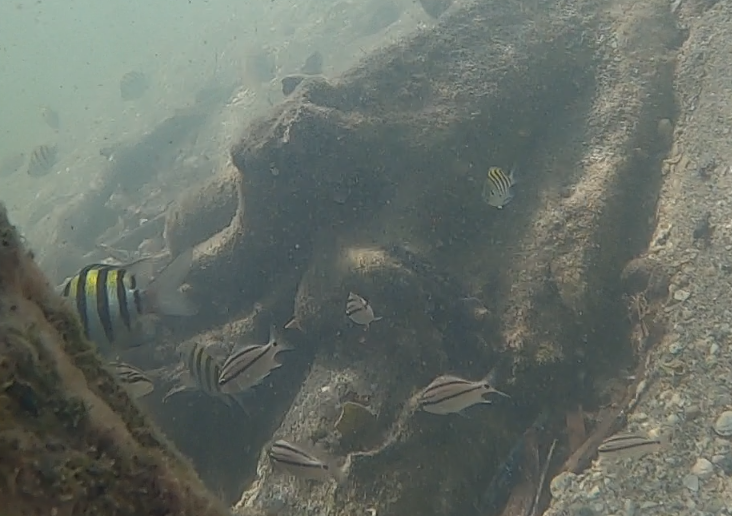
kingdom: Animalia
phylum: Chordata
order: Perciformes
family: Haemulidae
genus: Haemulon
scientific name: Haemulon parra
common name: Sailor's choice
